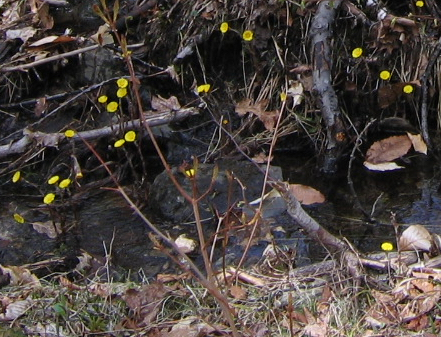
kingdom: Plantae
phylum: Tracheophyta
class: Magnoliopsida
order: Asterales
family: Asteraceae
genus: Tussilago
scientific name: Tussilago farfara
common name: Coltsfoot
